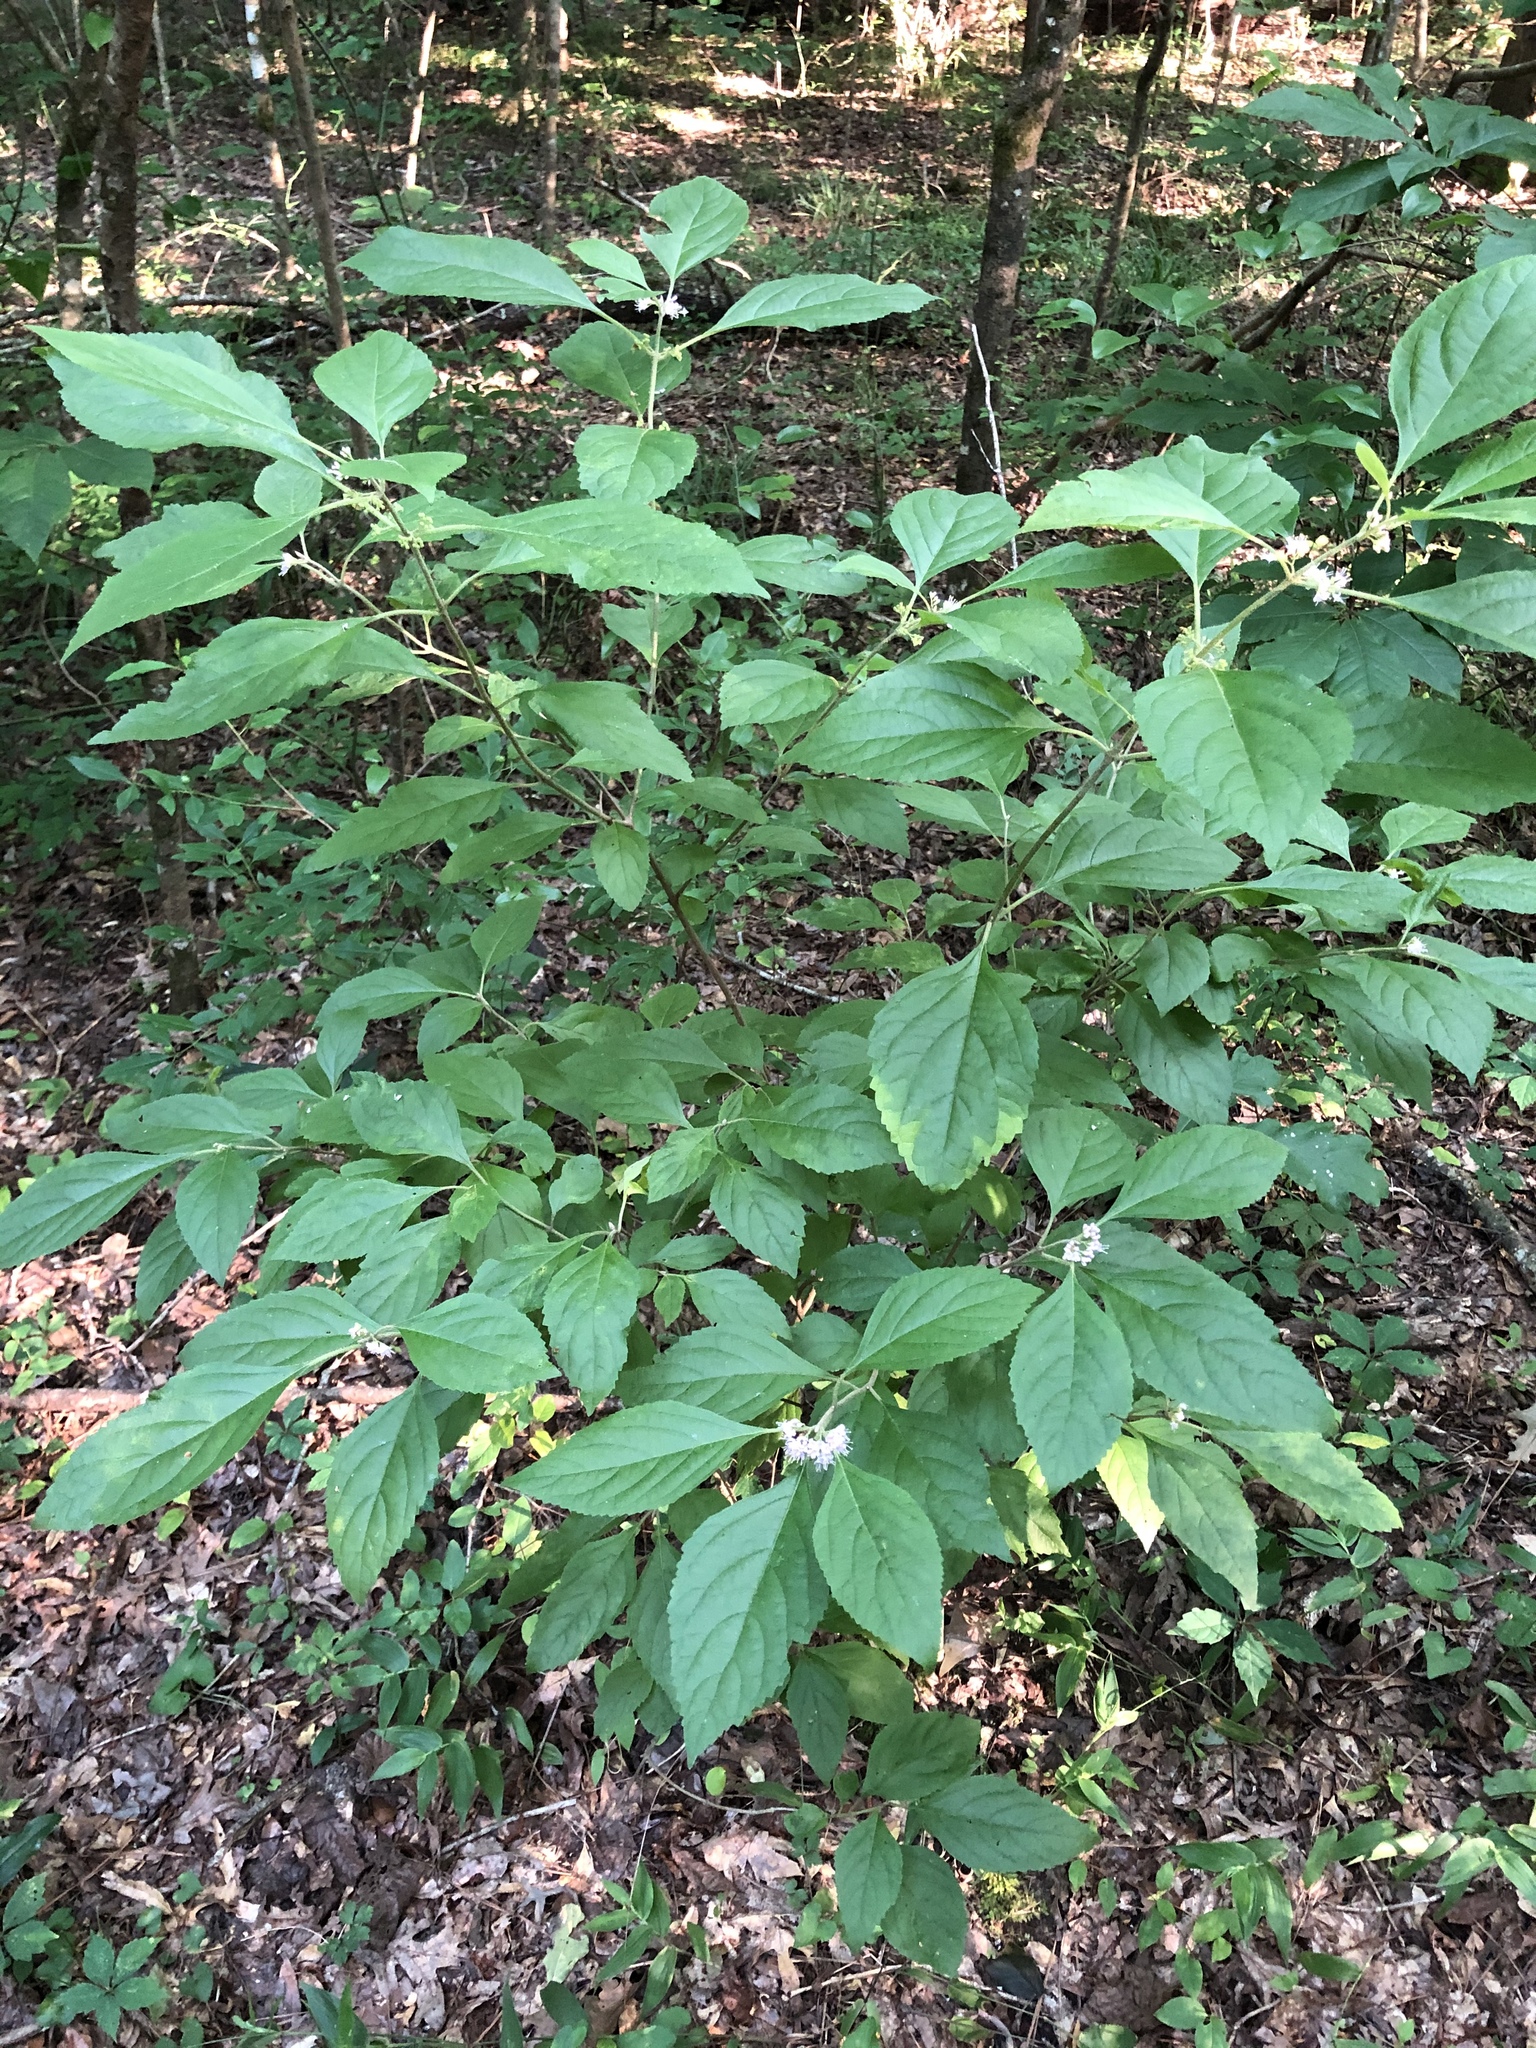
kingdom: Plantae
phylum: Tracheophyta
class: Magnoliopsida
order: Lamiales
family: Lamiaceae
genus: Callicarpa
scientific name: Callicarpa americana
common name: American beautyberry
